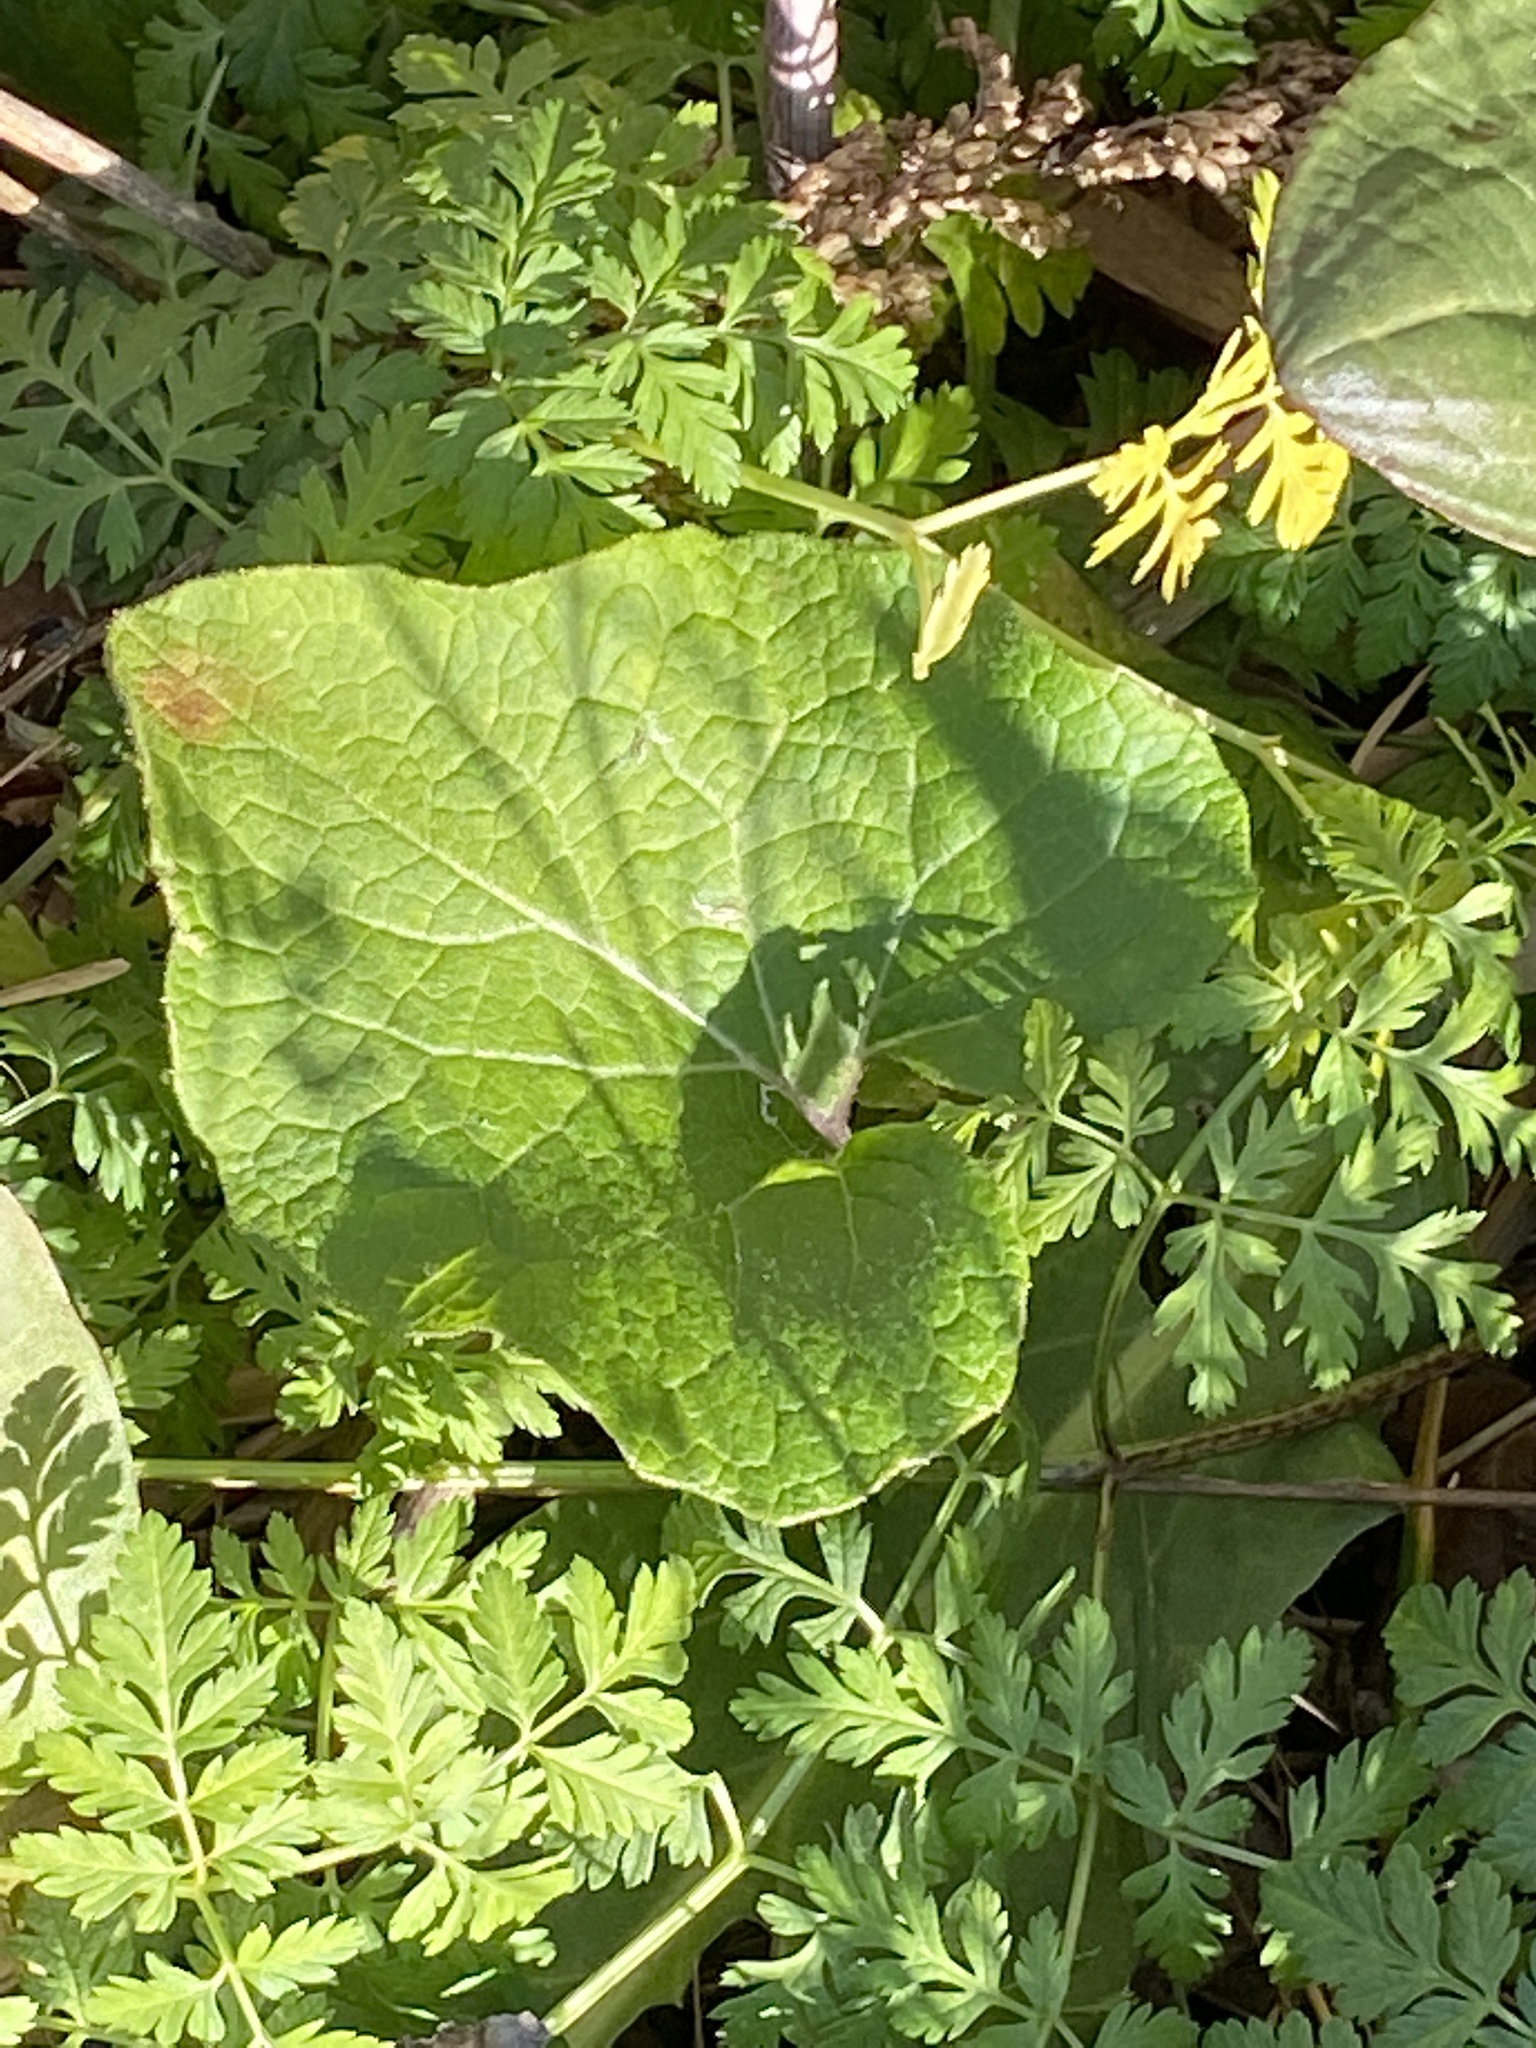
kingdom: Plantae
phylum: Tracheophyta
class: Magnoliopsida
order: Asterales
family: Asteraceae
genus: Arctium
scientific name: Arctium
